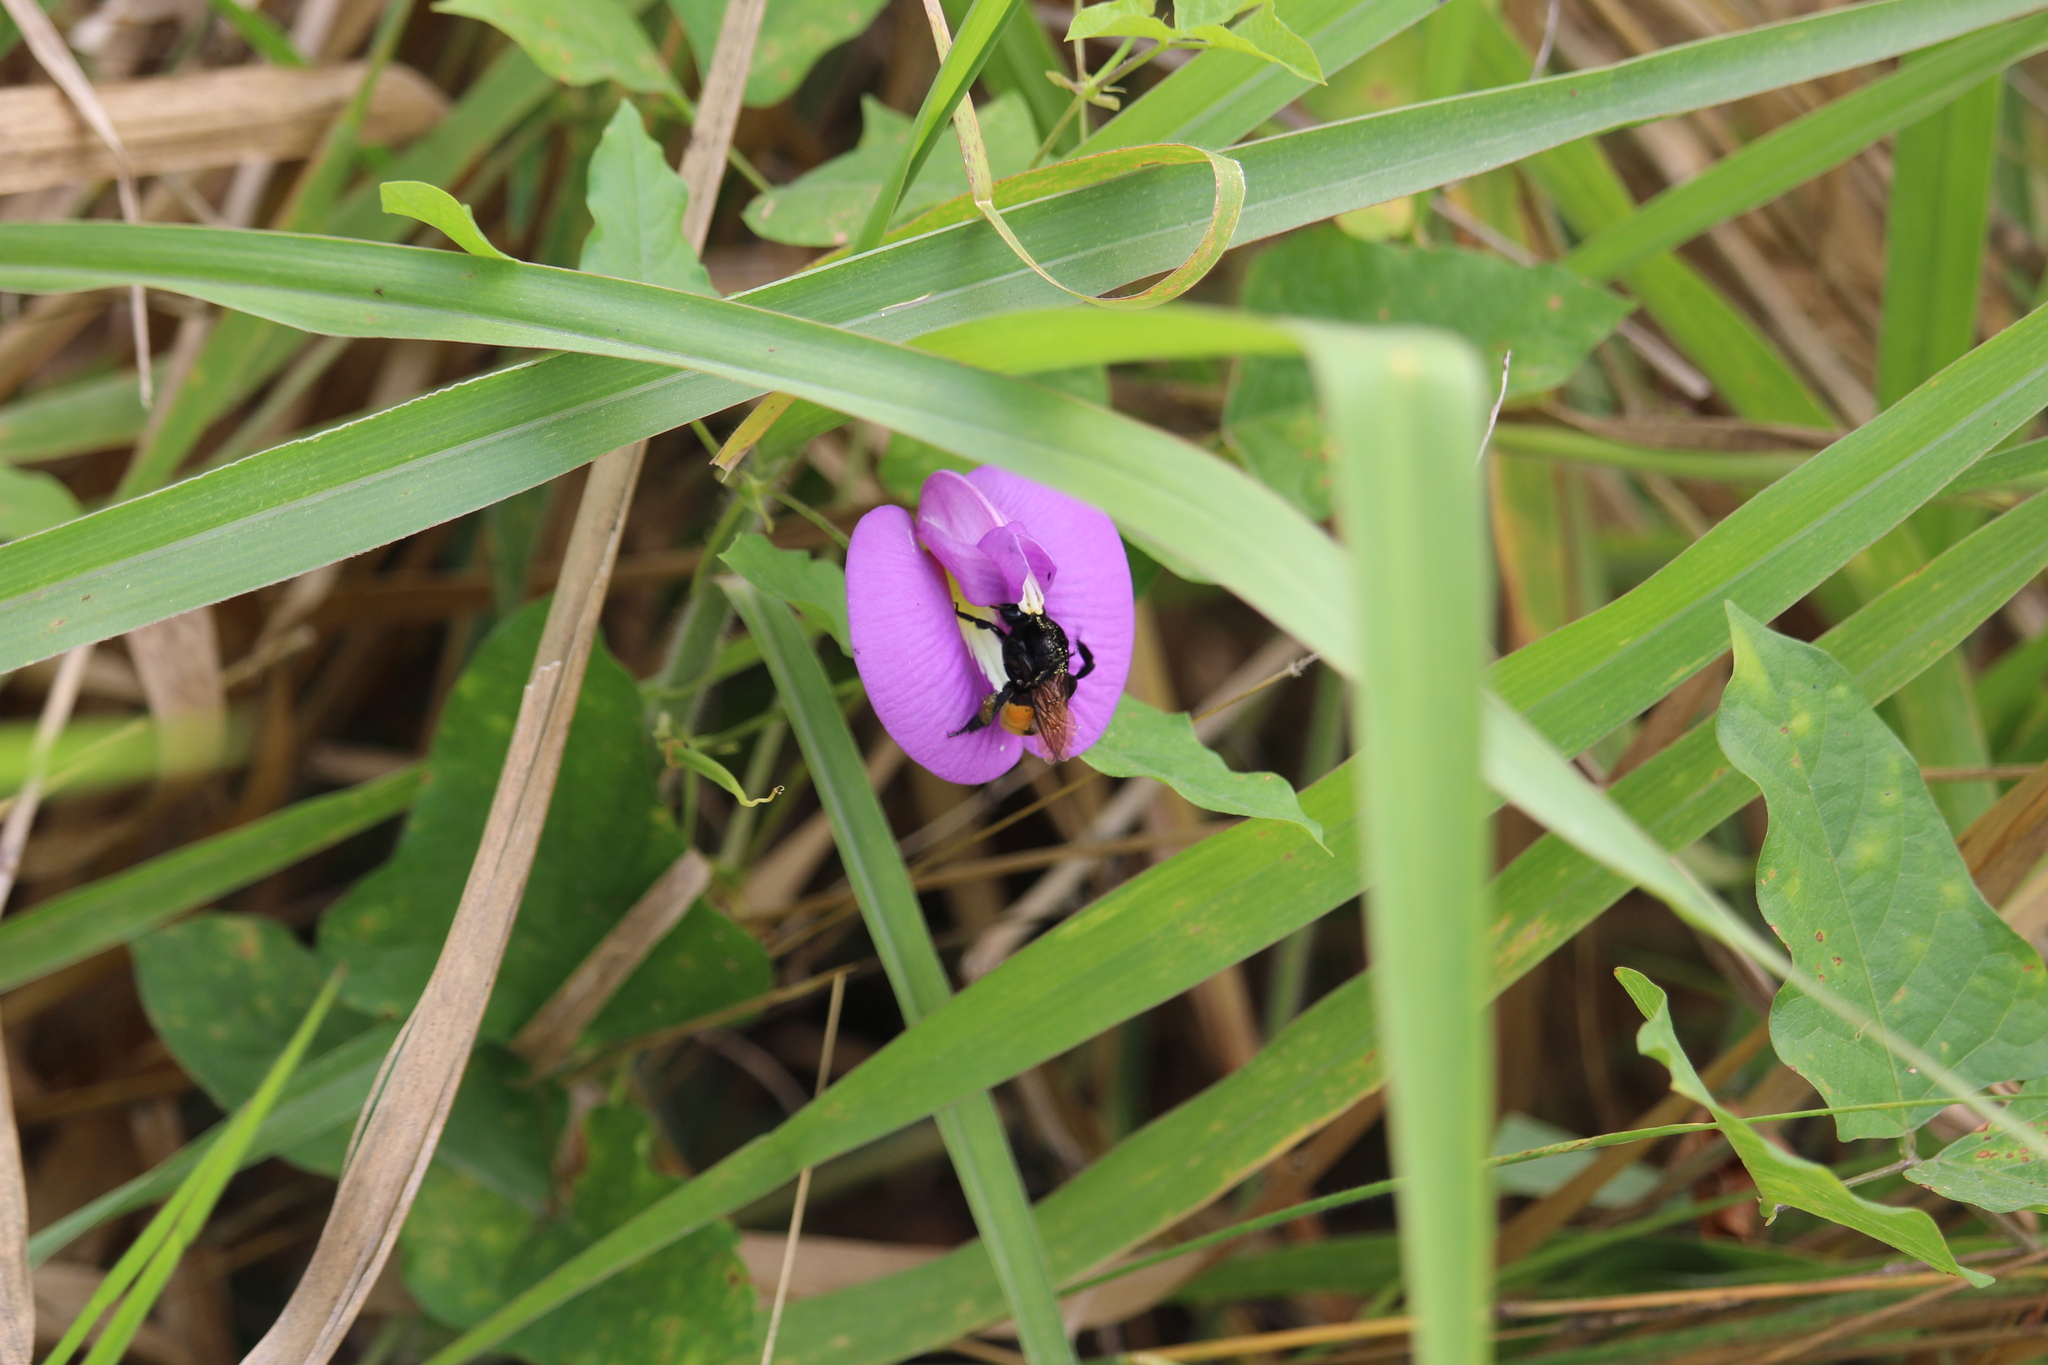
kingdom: Animalia
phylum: Arthropoda
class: Insecta
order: Hymenoptera
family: Apidae
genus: Eulaema
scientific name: Eulaema polychroma
